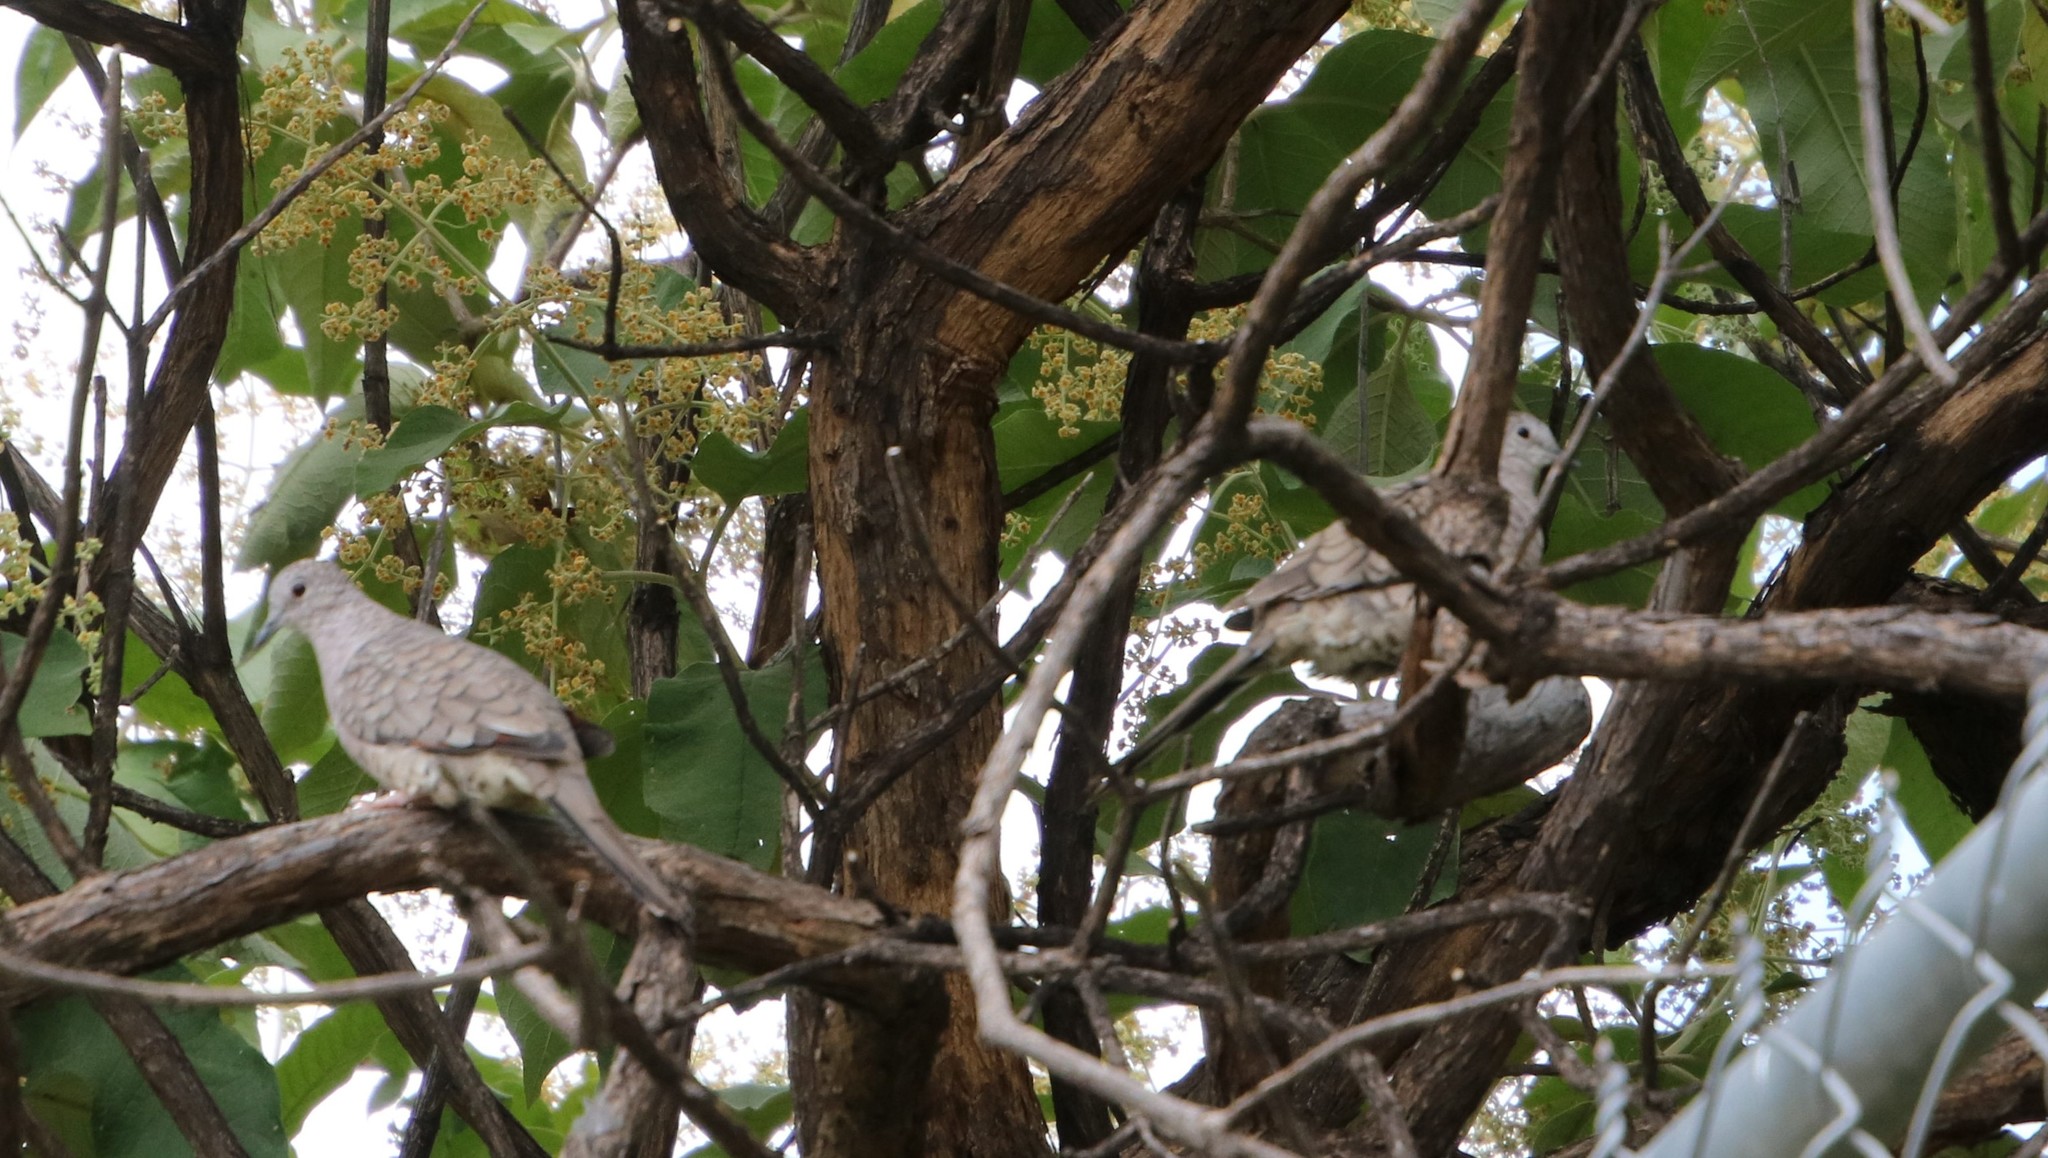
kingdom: Animalia
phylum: Chordata
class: Aves
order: Columbiformes
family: Columbidae
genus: Columbina
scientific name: Columbina inca
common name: Inca dove
